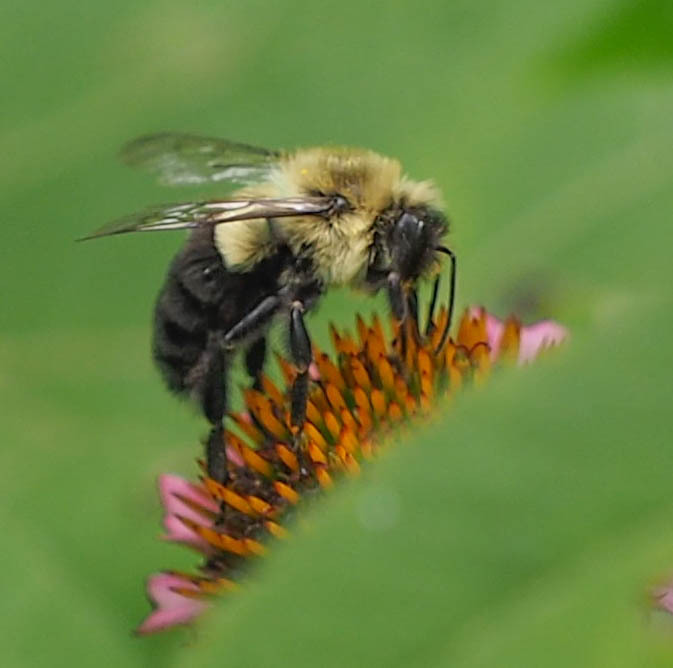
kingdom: Animalia
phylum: Arthropoda
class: Insecta
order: Hymenoptera
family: Apidae
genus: Bombus
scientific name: Bombus impatiens
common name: Common eastern bumble bee
